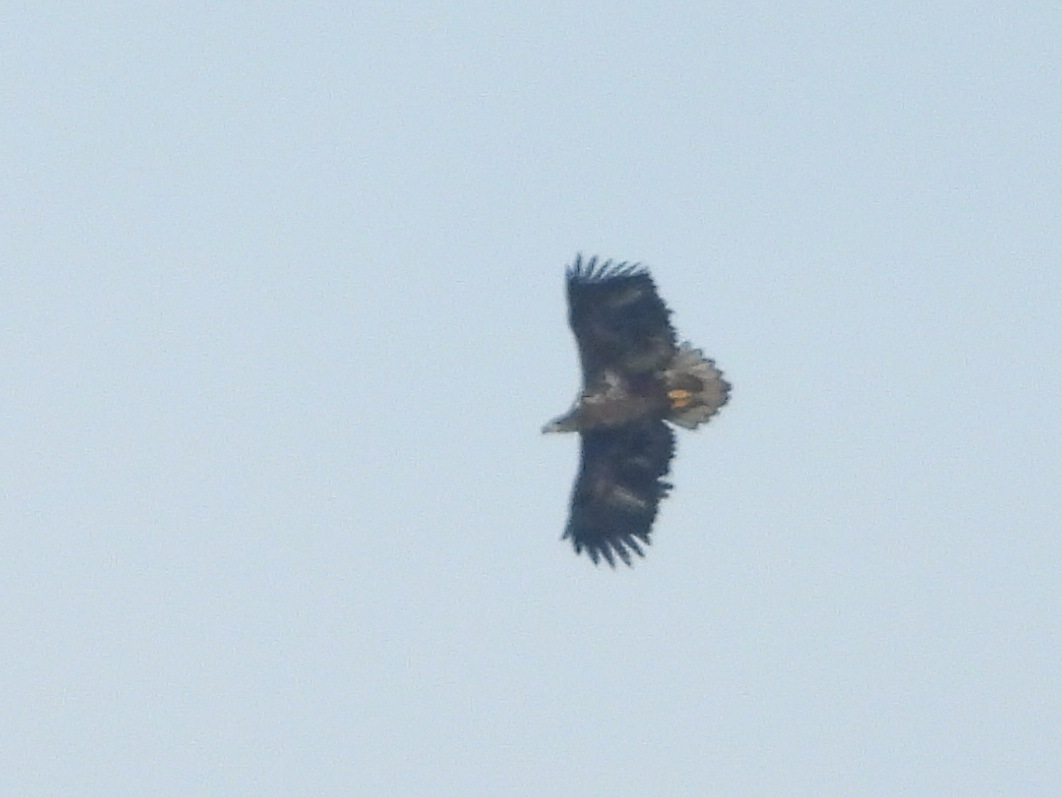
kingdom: Animalia
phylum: Chordata
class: Aves
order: Accipitriformes
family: Accipitridae
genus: Haliaeetus
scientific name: Haliaeetus albicilla
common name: White-tailed eagle
